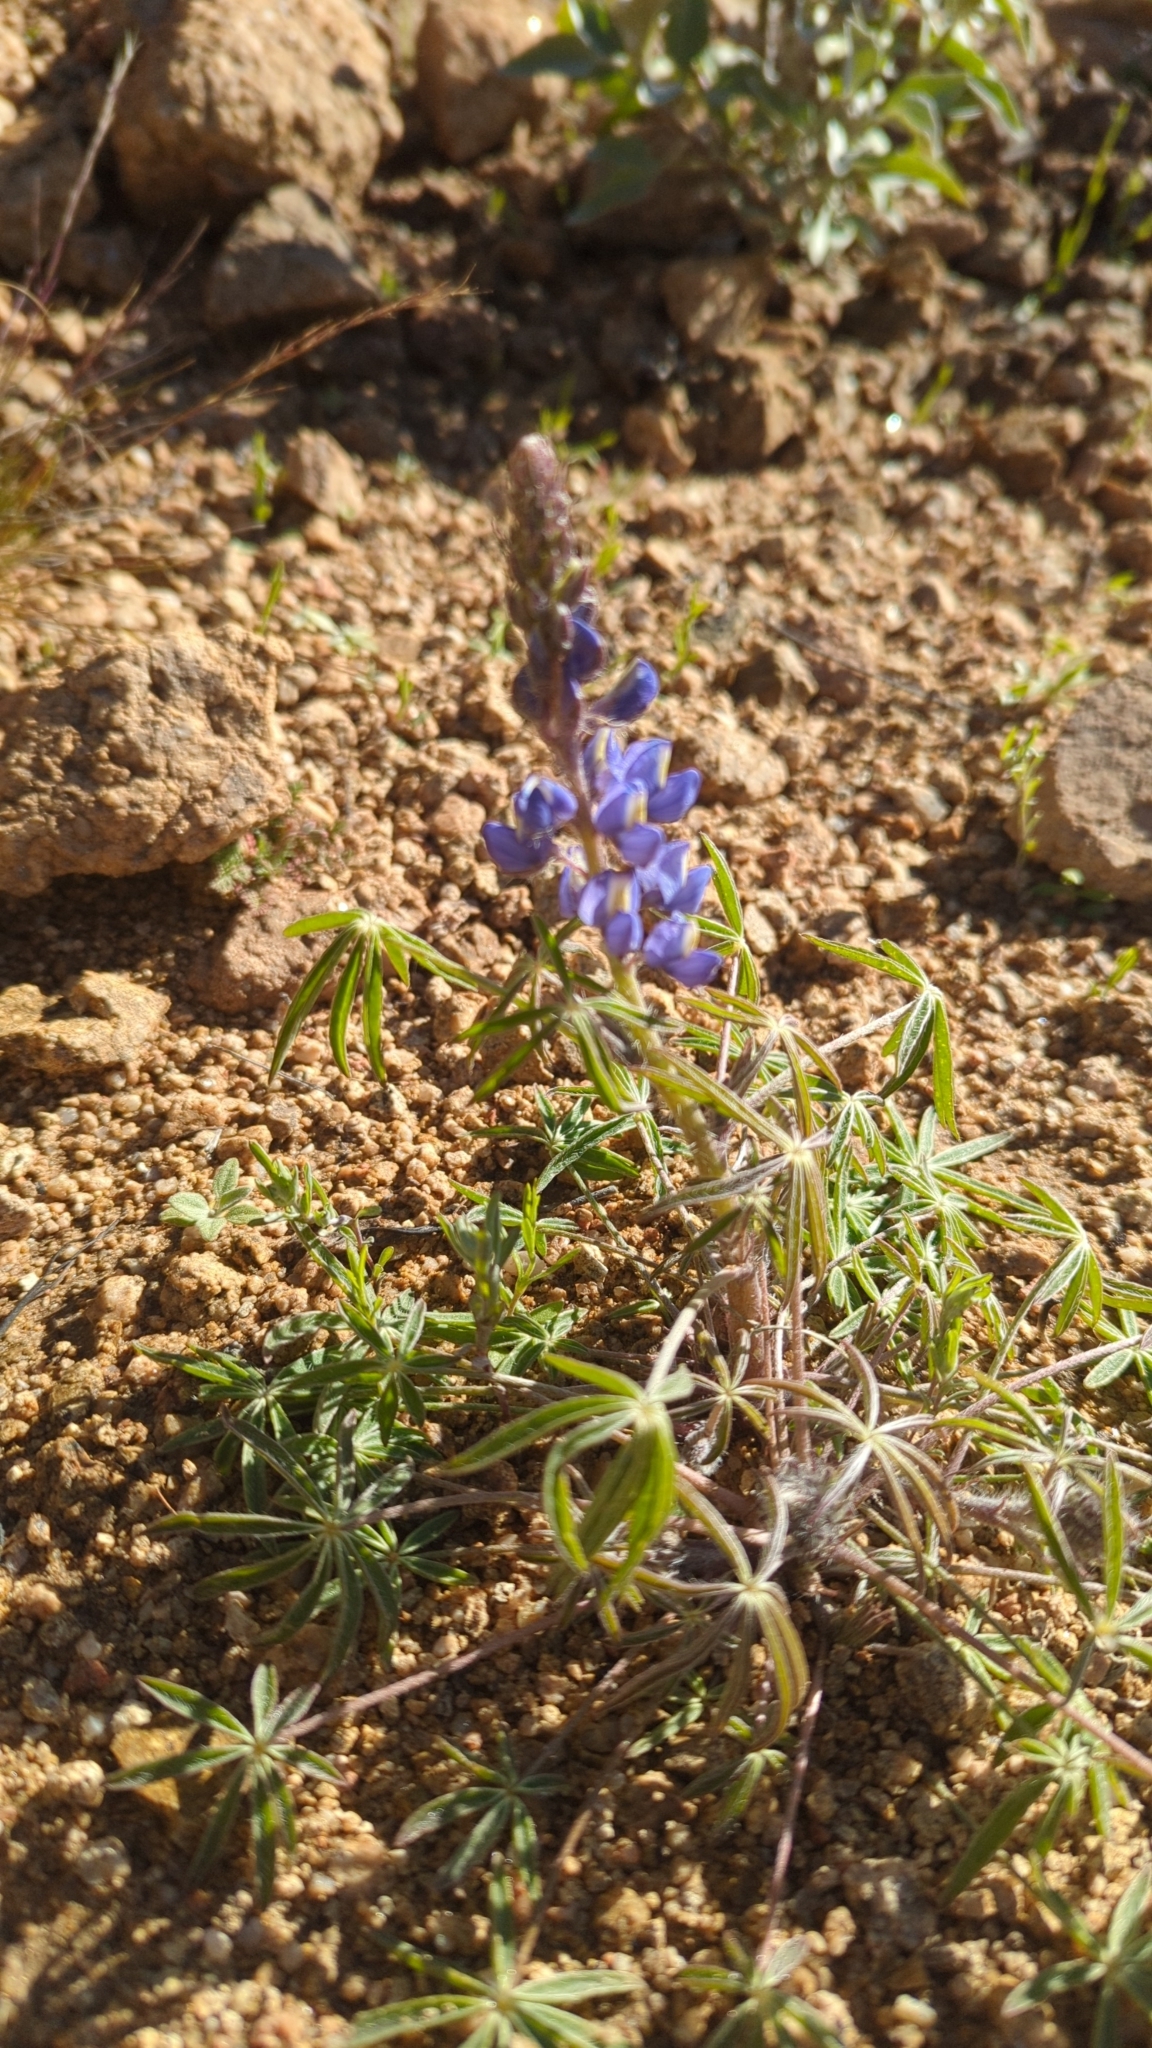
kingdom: Plantae
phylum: Tracheophyta
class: Magnoliopsida
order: Fabales
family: Fabaceae
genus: Lupinus
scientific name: Lupinus sparsiflorus
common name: Coulter's lupine
